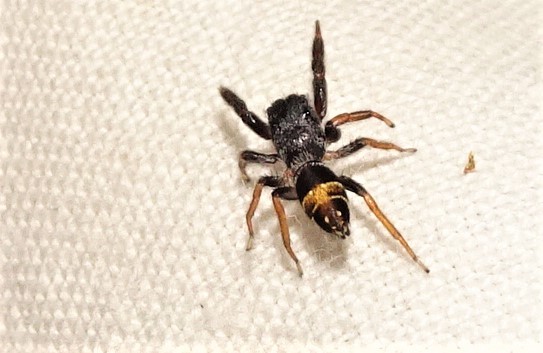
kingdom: Animalia
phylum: Arthropoda
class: Arachnida
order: Araneae
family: Salticidae
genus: Apricia
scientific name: Apricia jovialis
